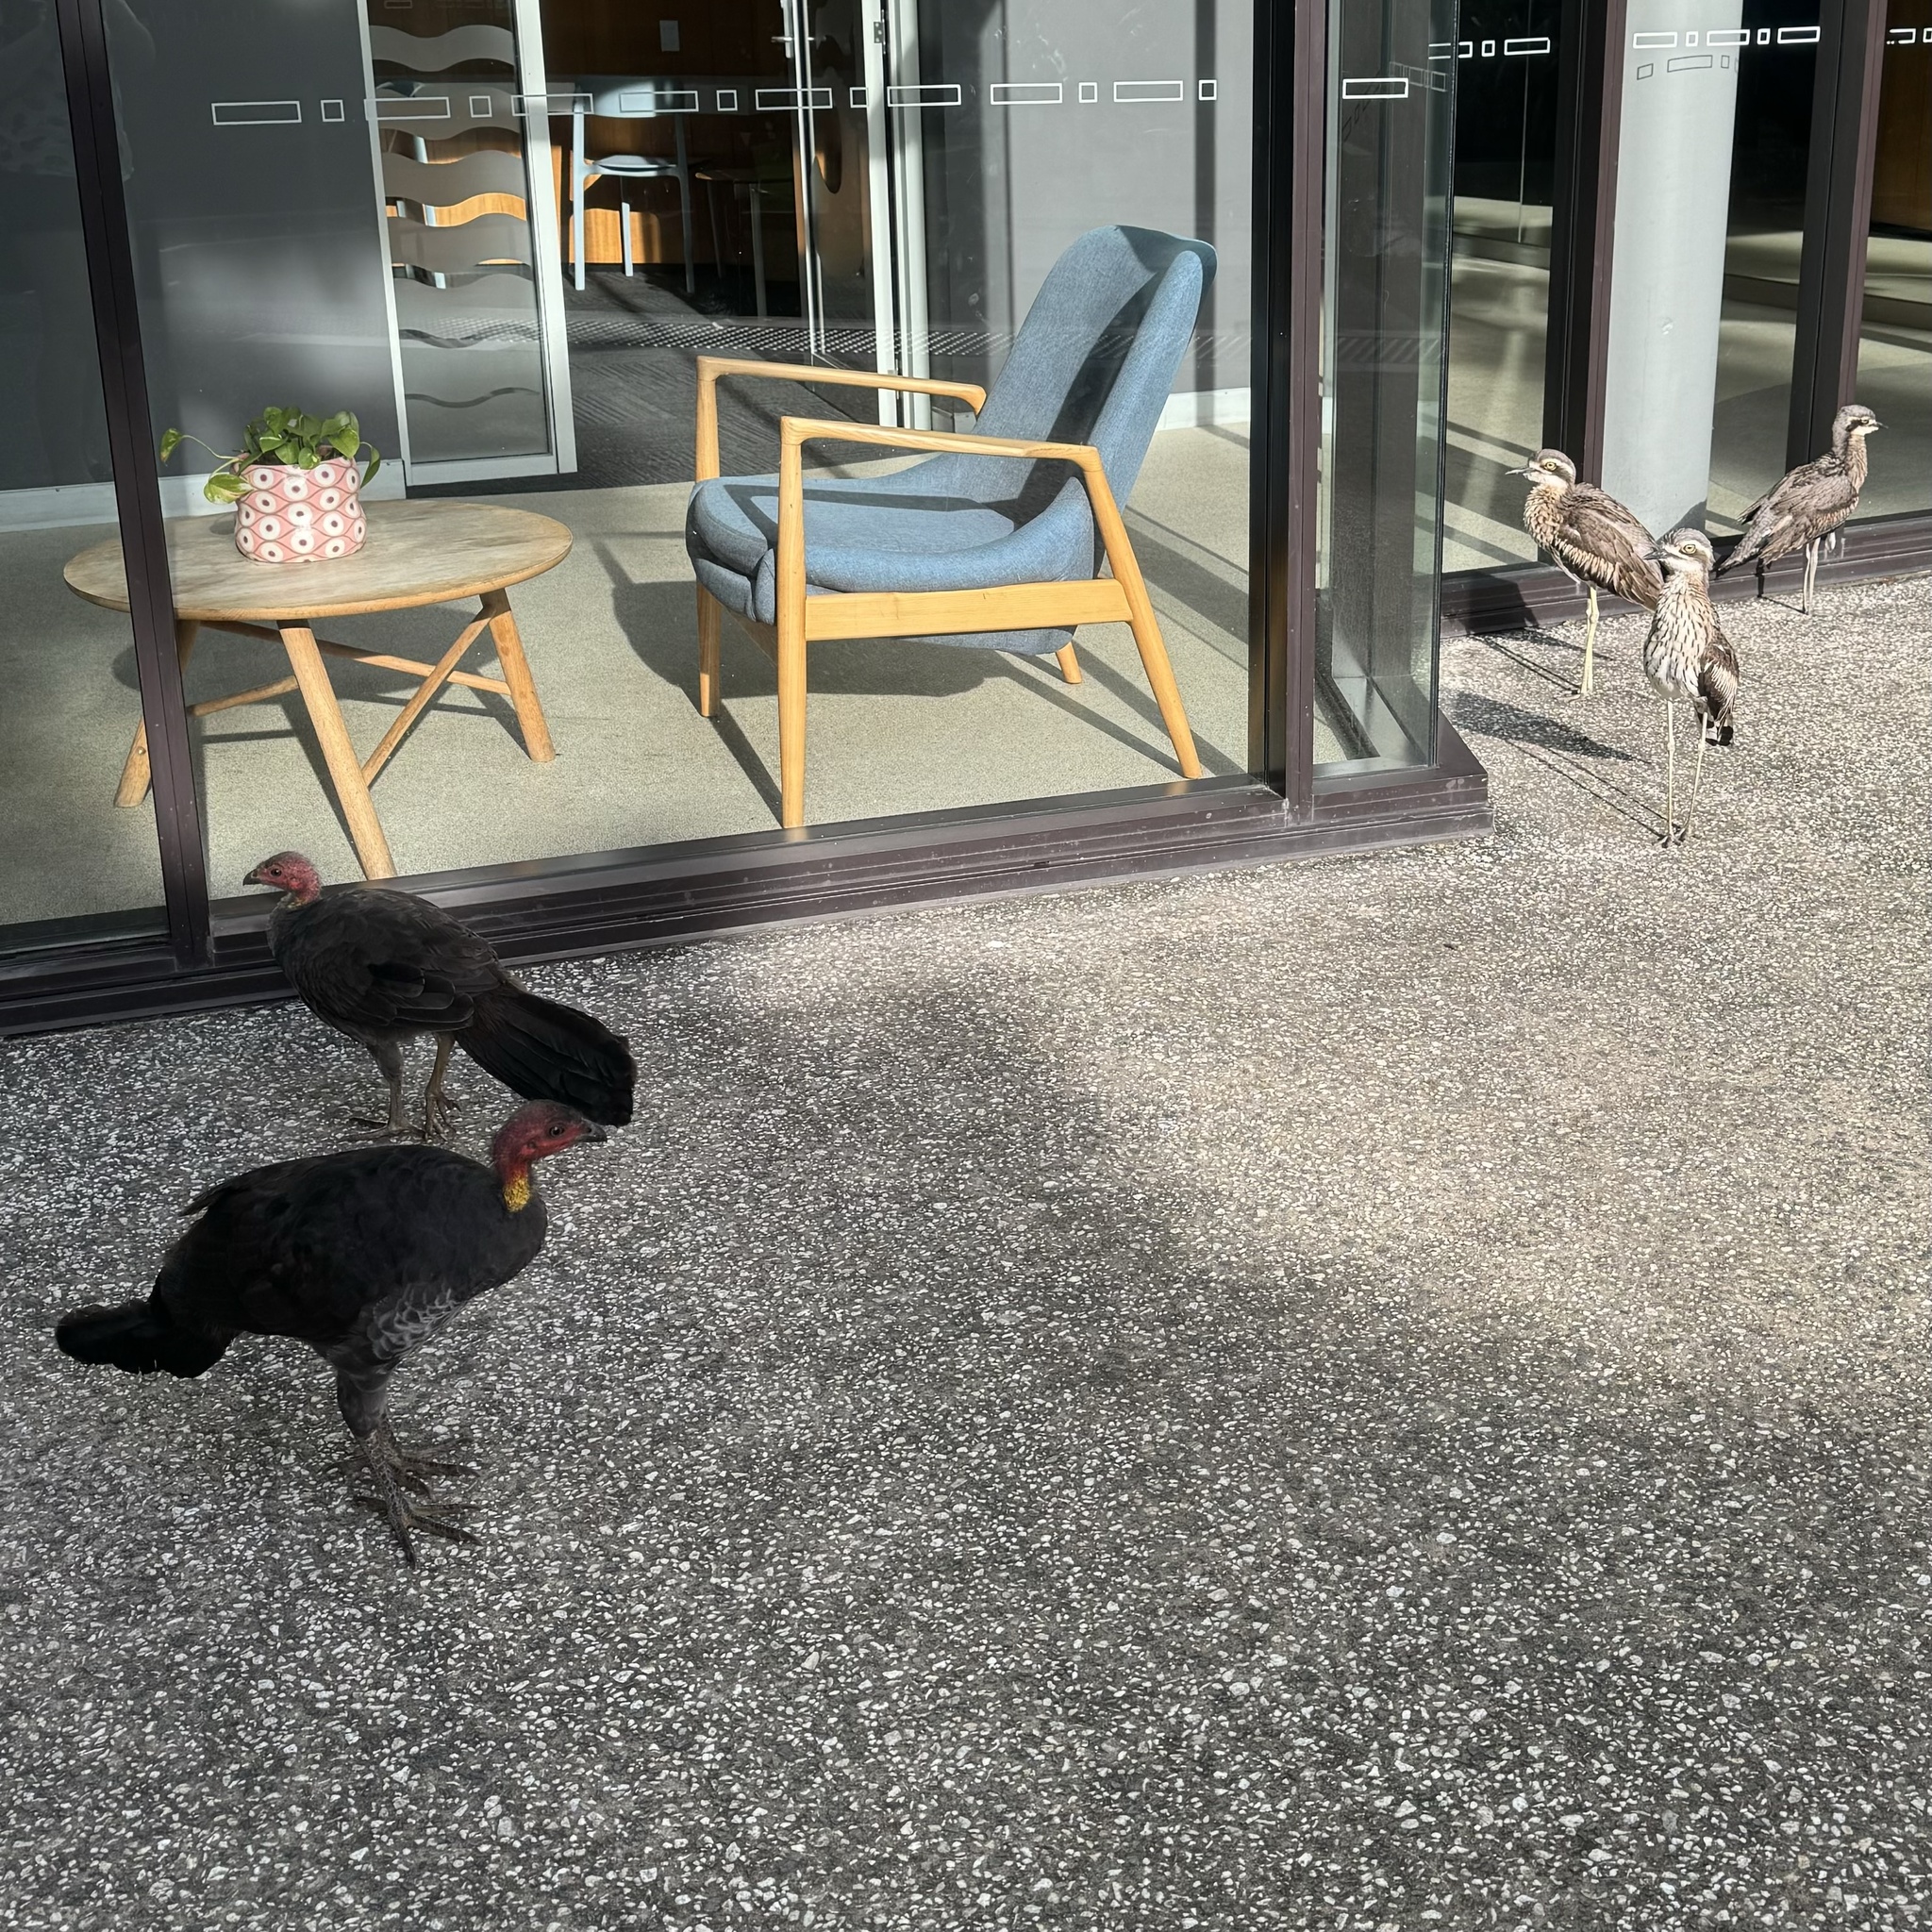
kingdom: Animalia
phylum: Chordata
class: Aves
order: Charadriiformes
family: Burhinidae
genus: Burhinus
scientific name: Burhinus grallarius
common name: Bush stone-curlew
